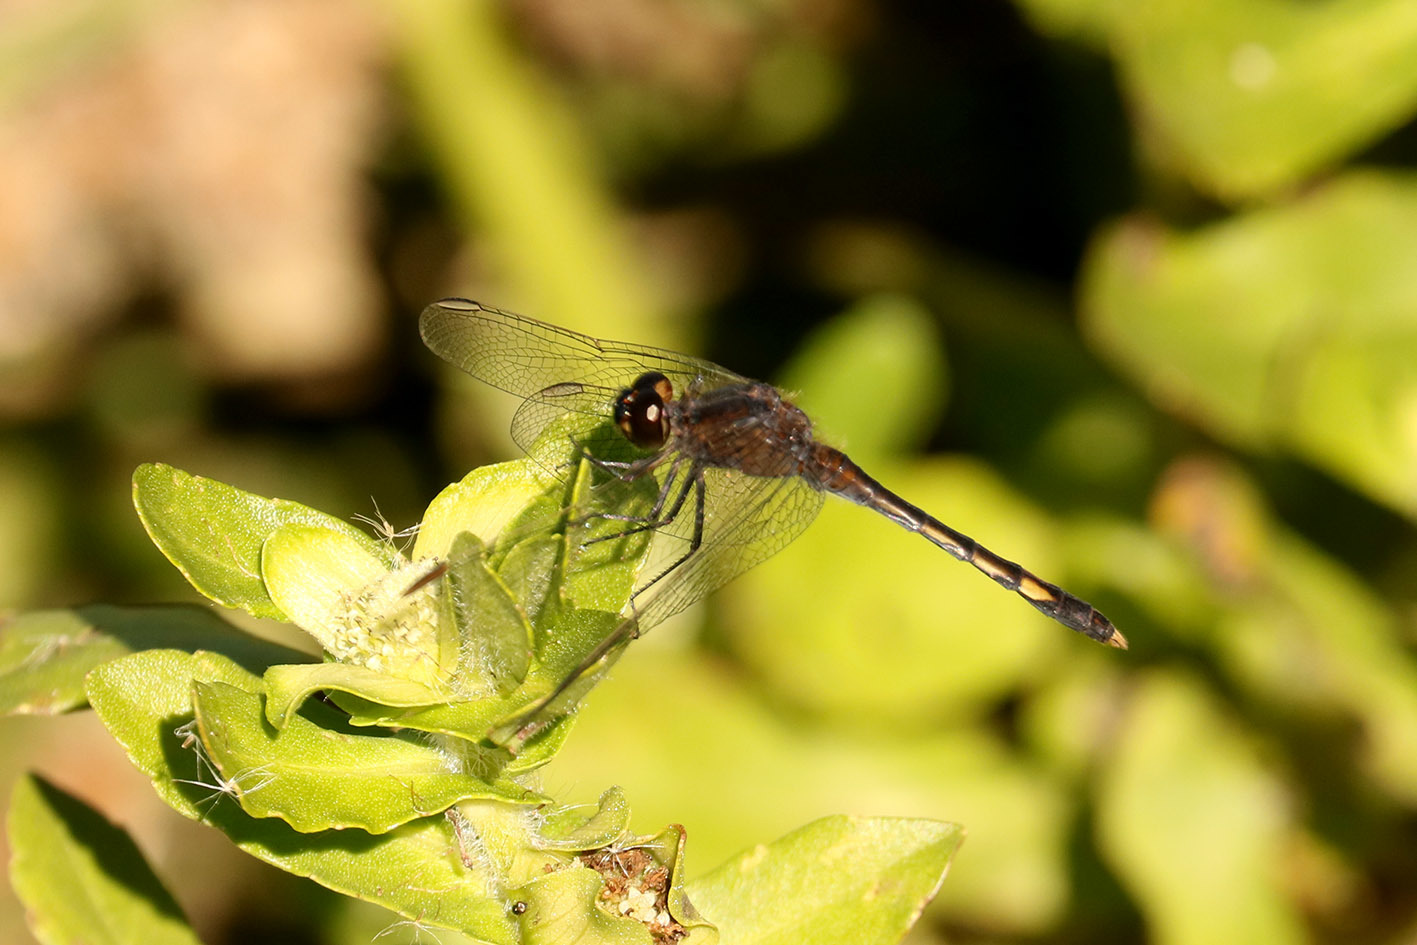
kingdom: Animalia
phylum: Arthropoda
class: Insecta
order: Odonata
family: Libellulidae
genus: Erythrodiplax
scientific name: Erythrodiplax nigricans
